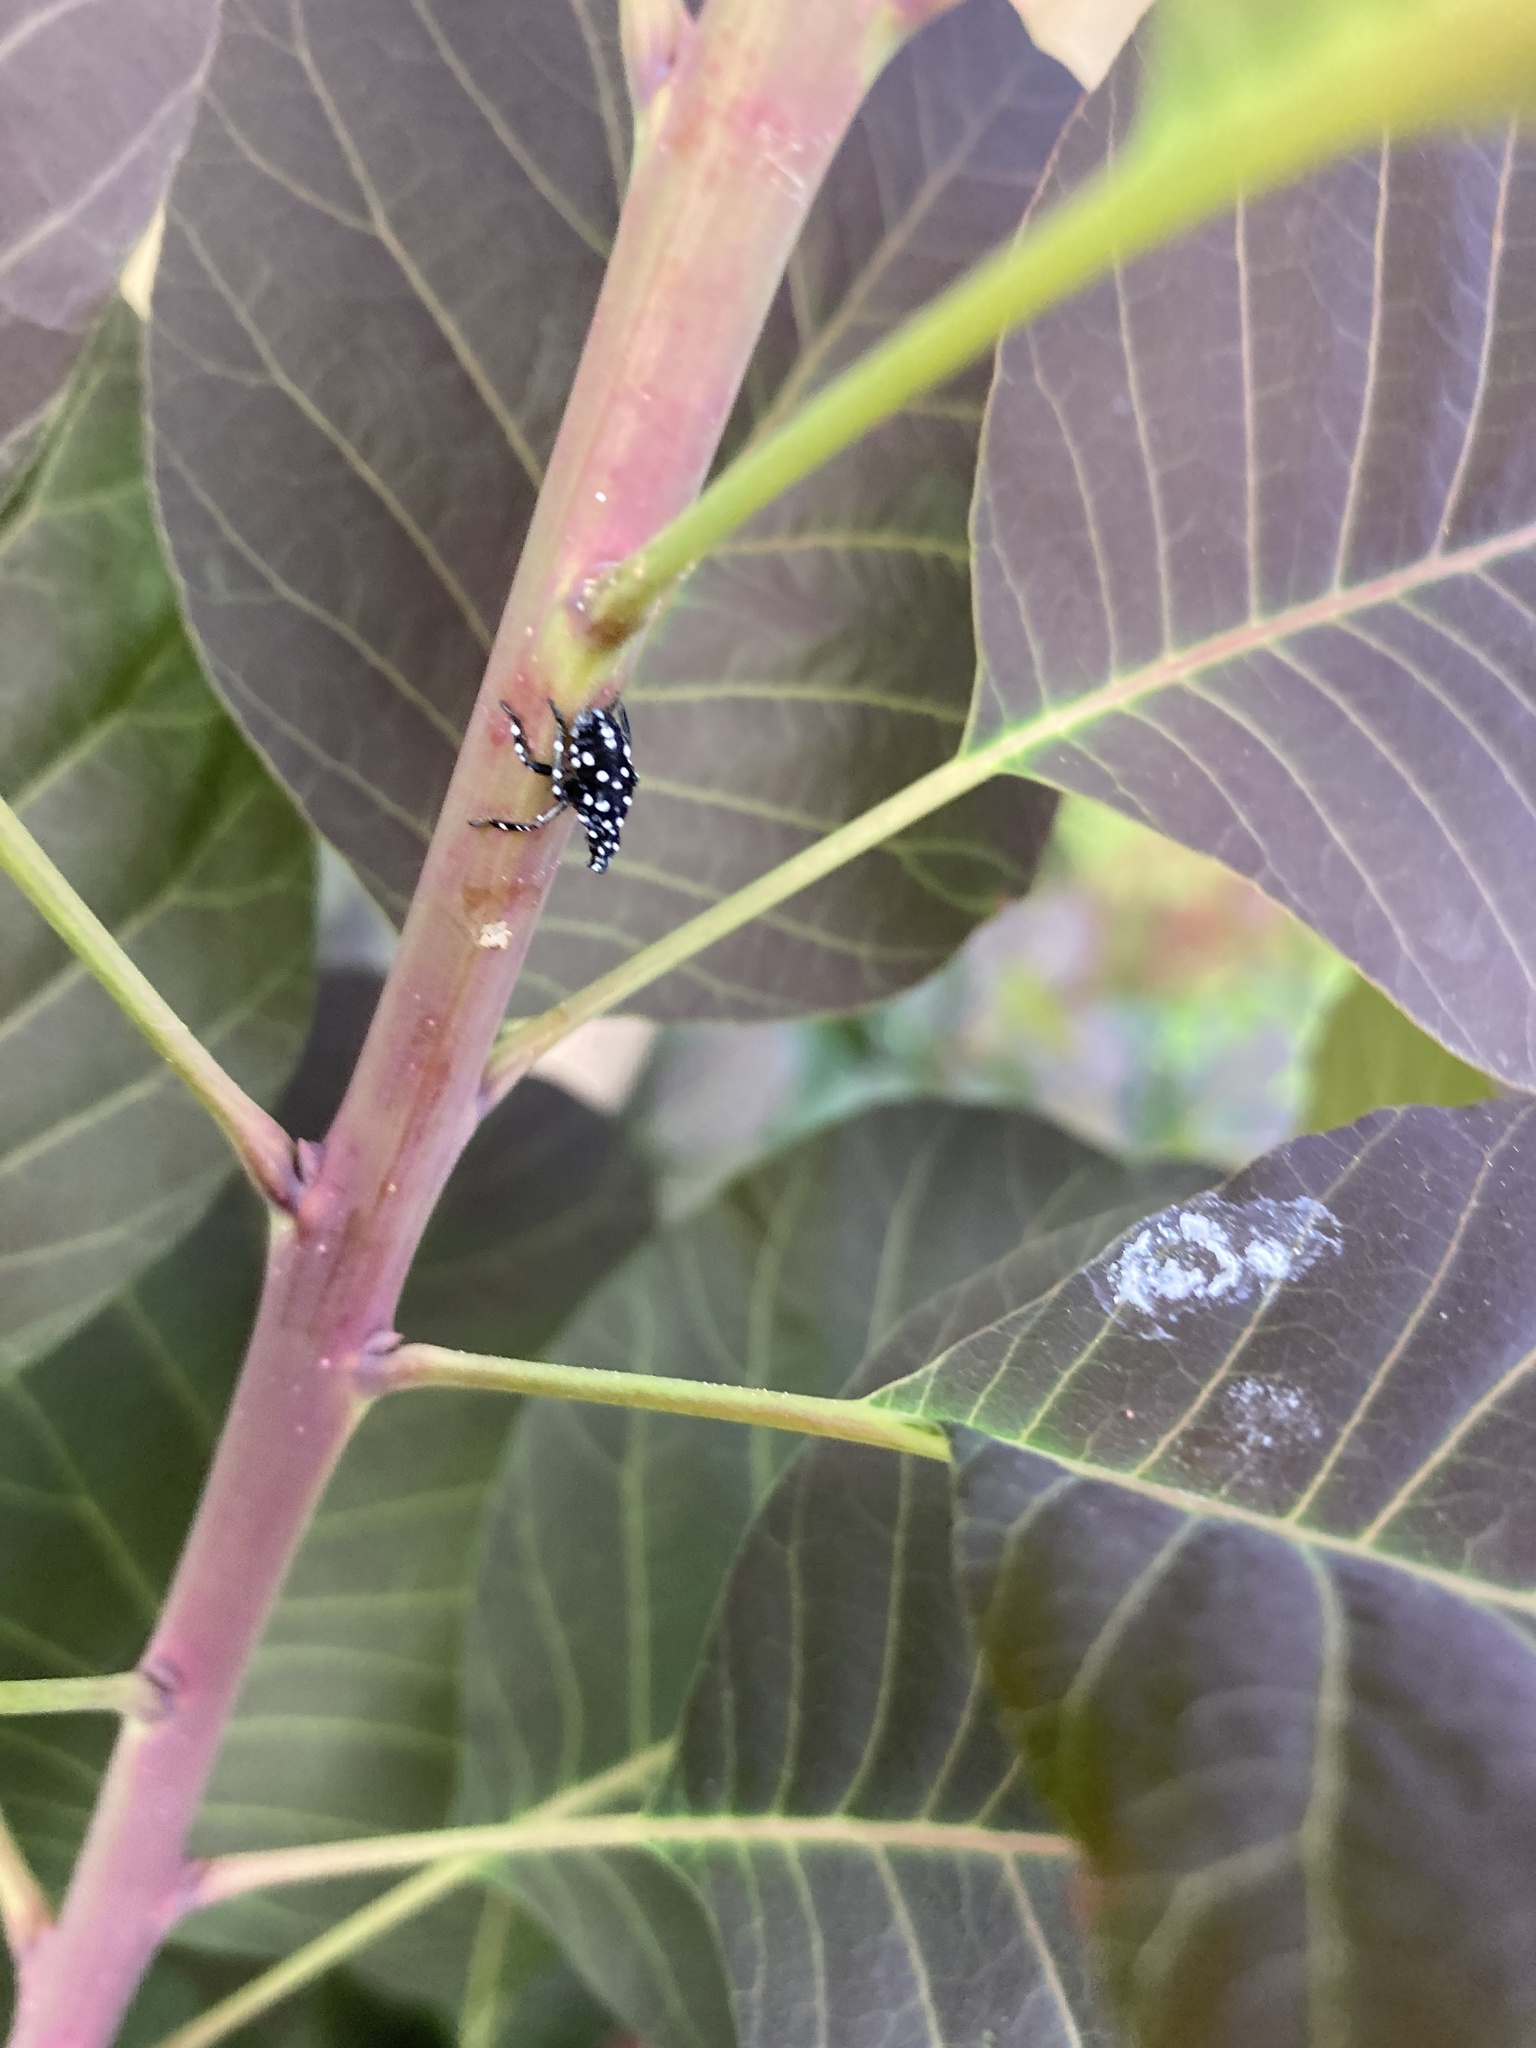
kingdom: Animalia
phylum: Arthropoda
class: Insecta
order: Hemiptera
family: Fulgoridae
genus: Lycorma
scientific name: Lycorma delicatula
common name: Spotted lanternfly
